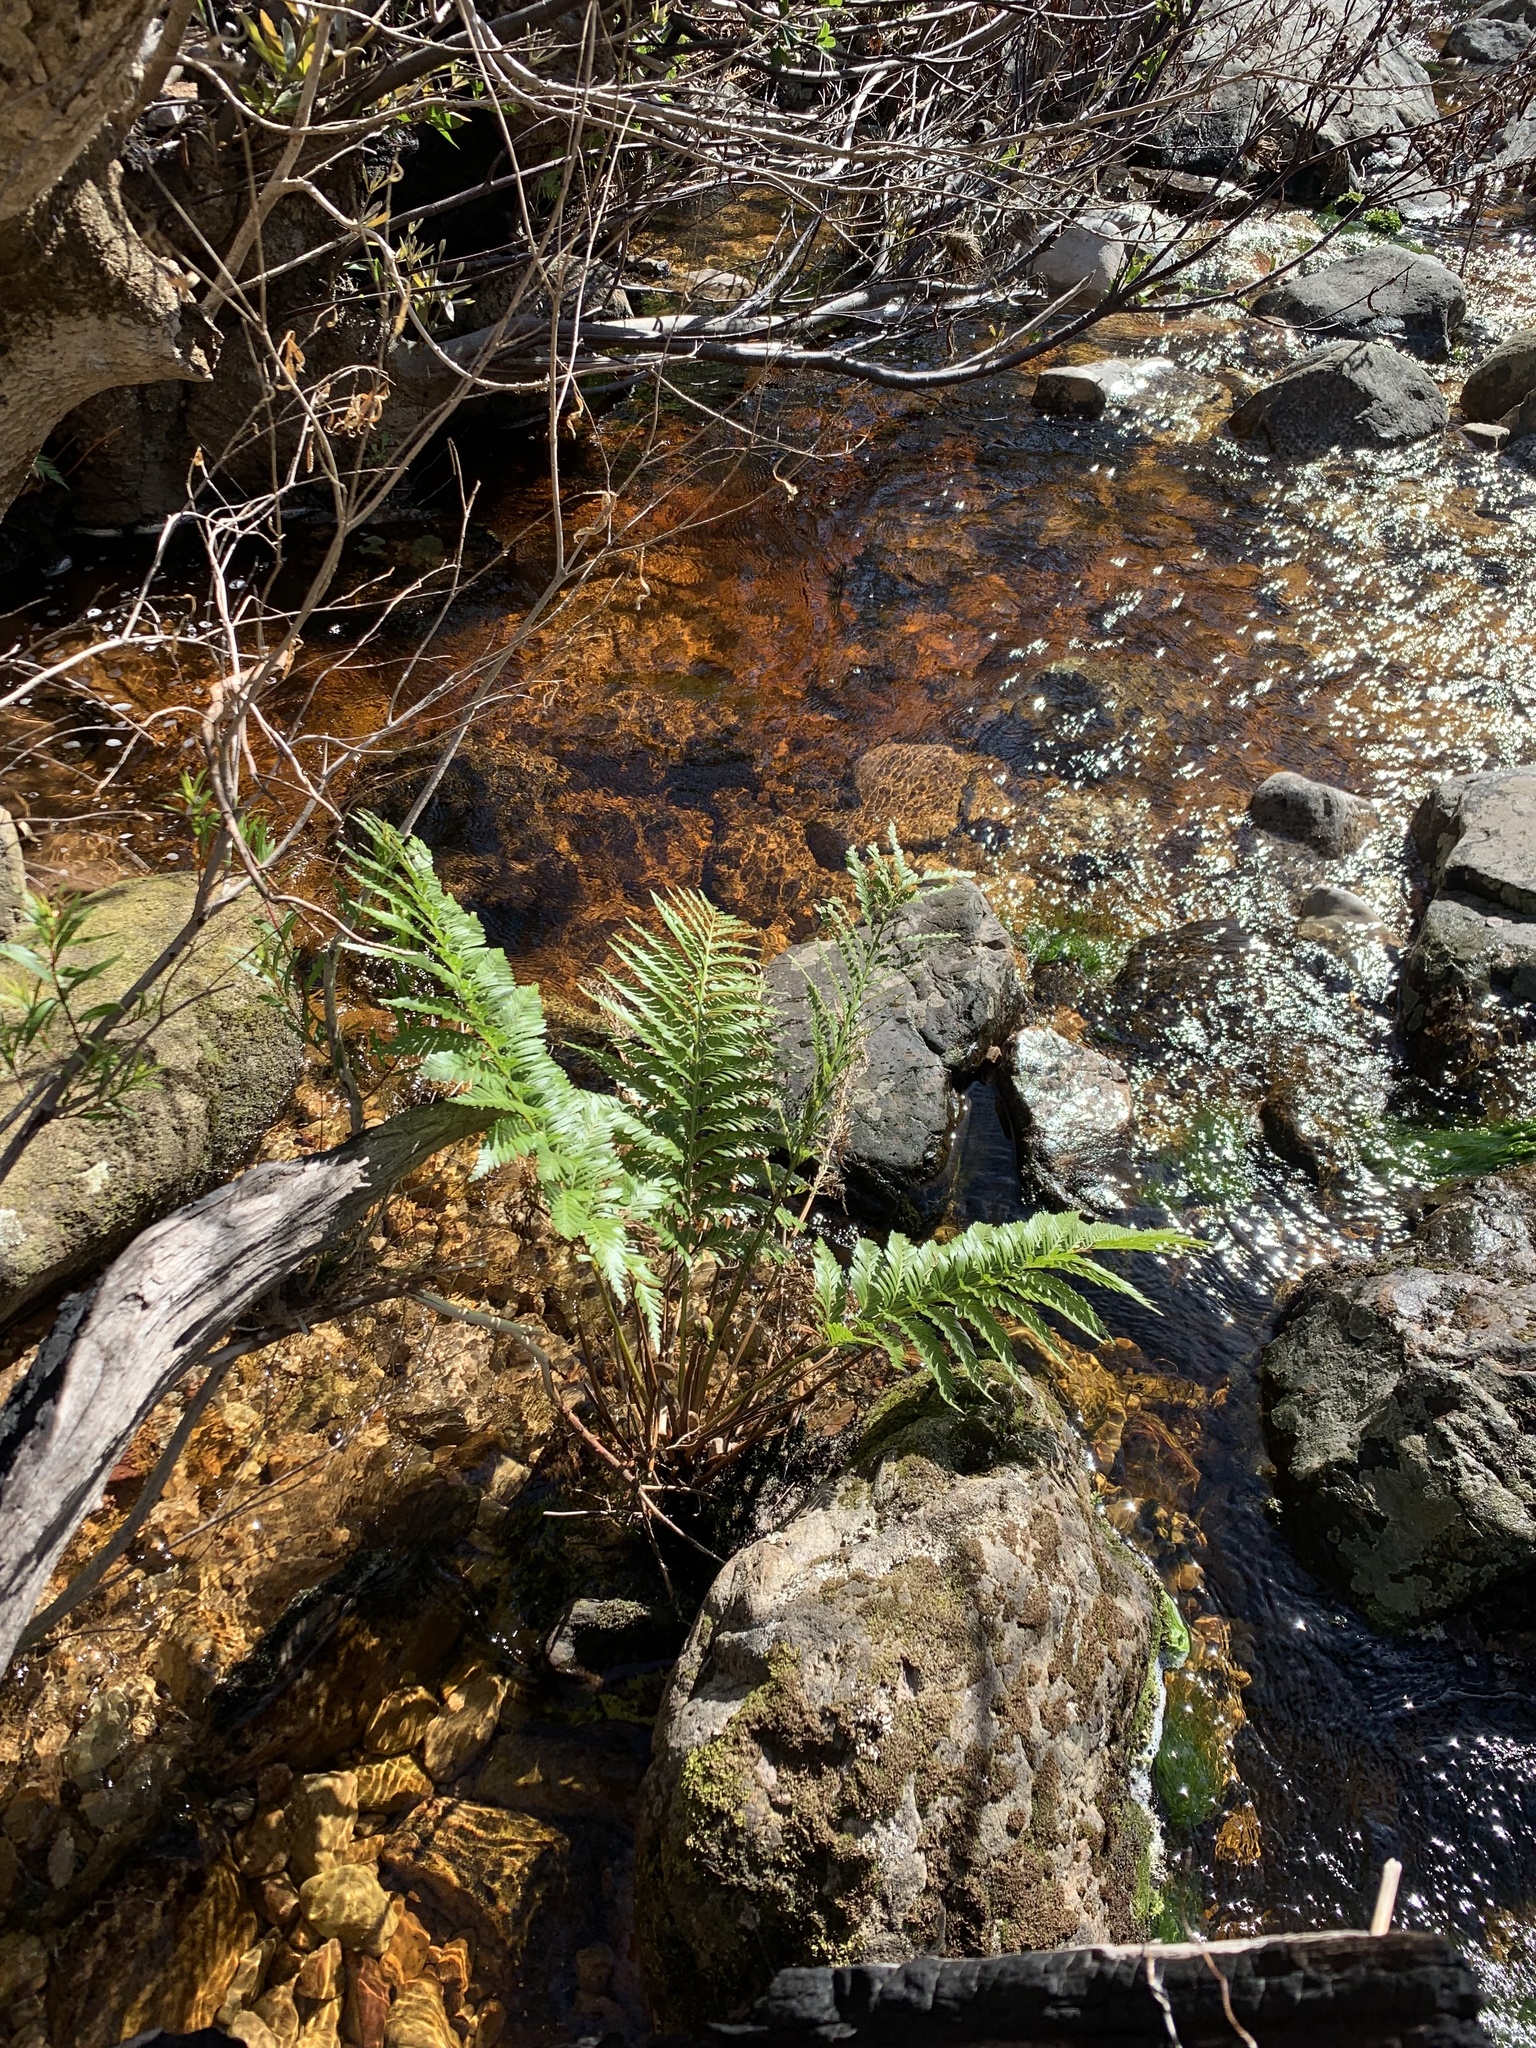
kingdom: Plantae
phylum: Tracheophyta
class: Polypodiopsida
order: Osmundales
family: Osmundaceae
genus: Todea
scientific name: Todea barbara
